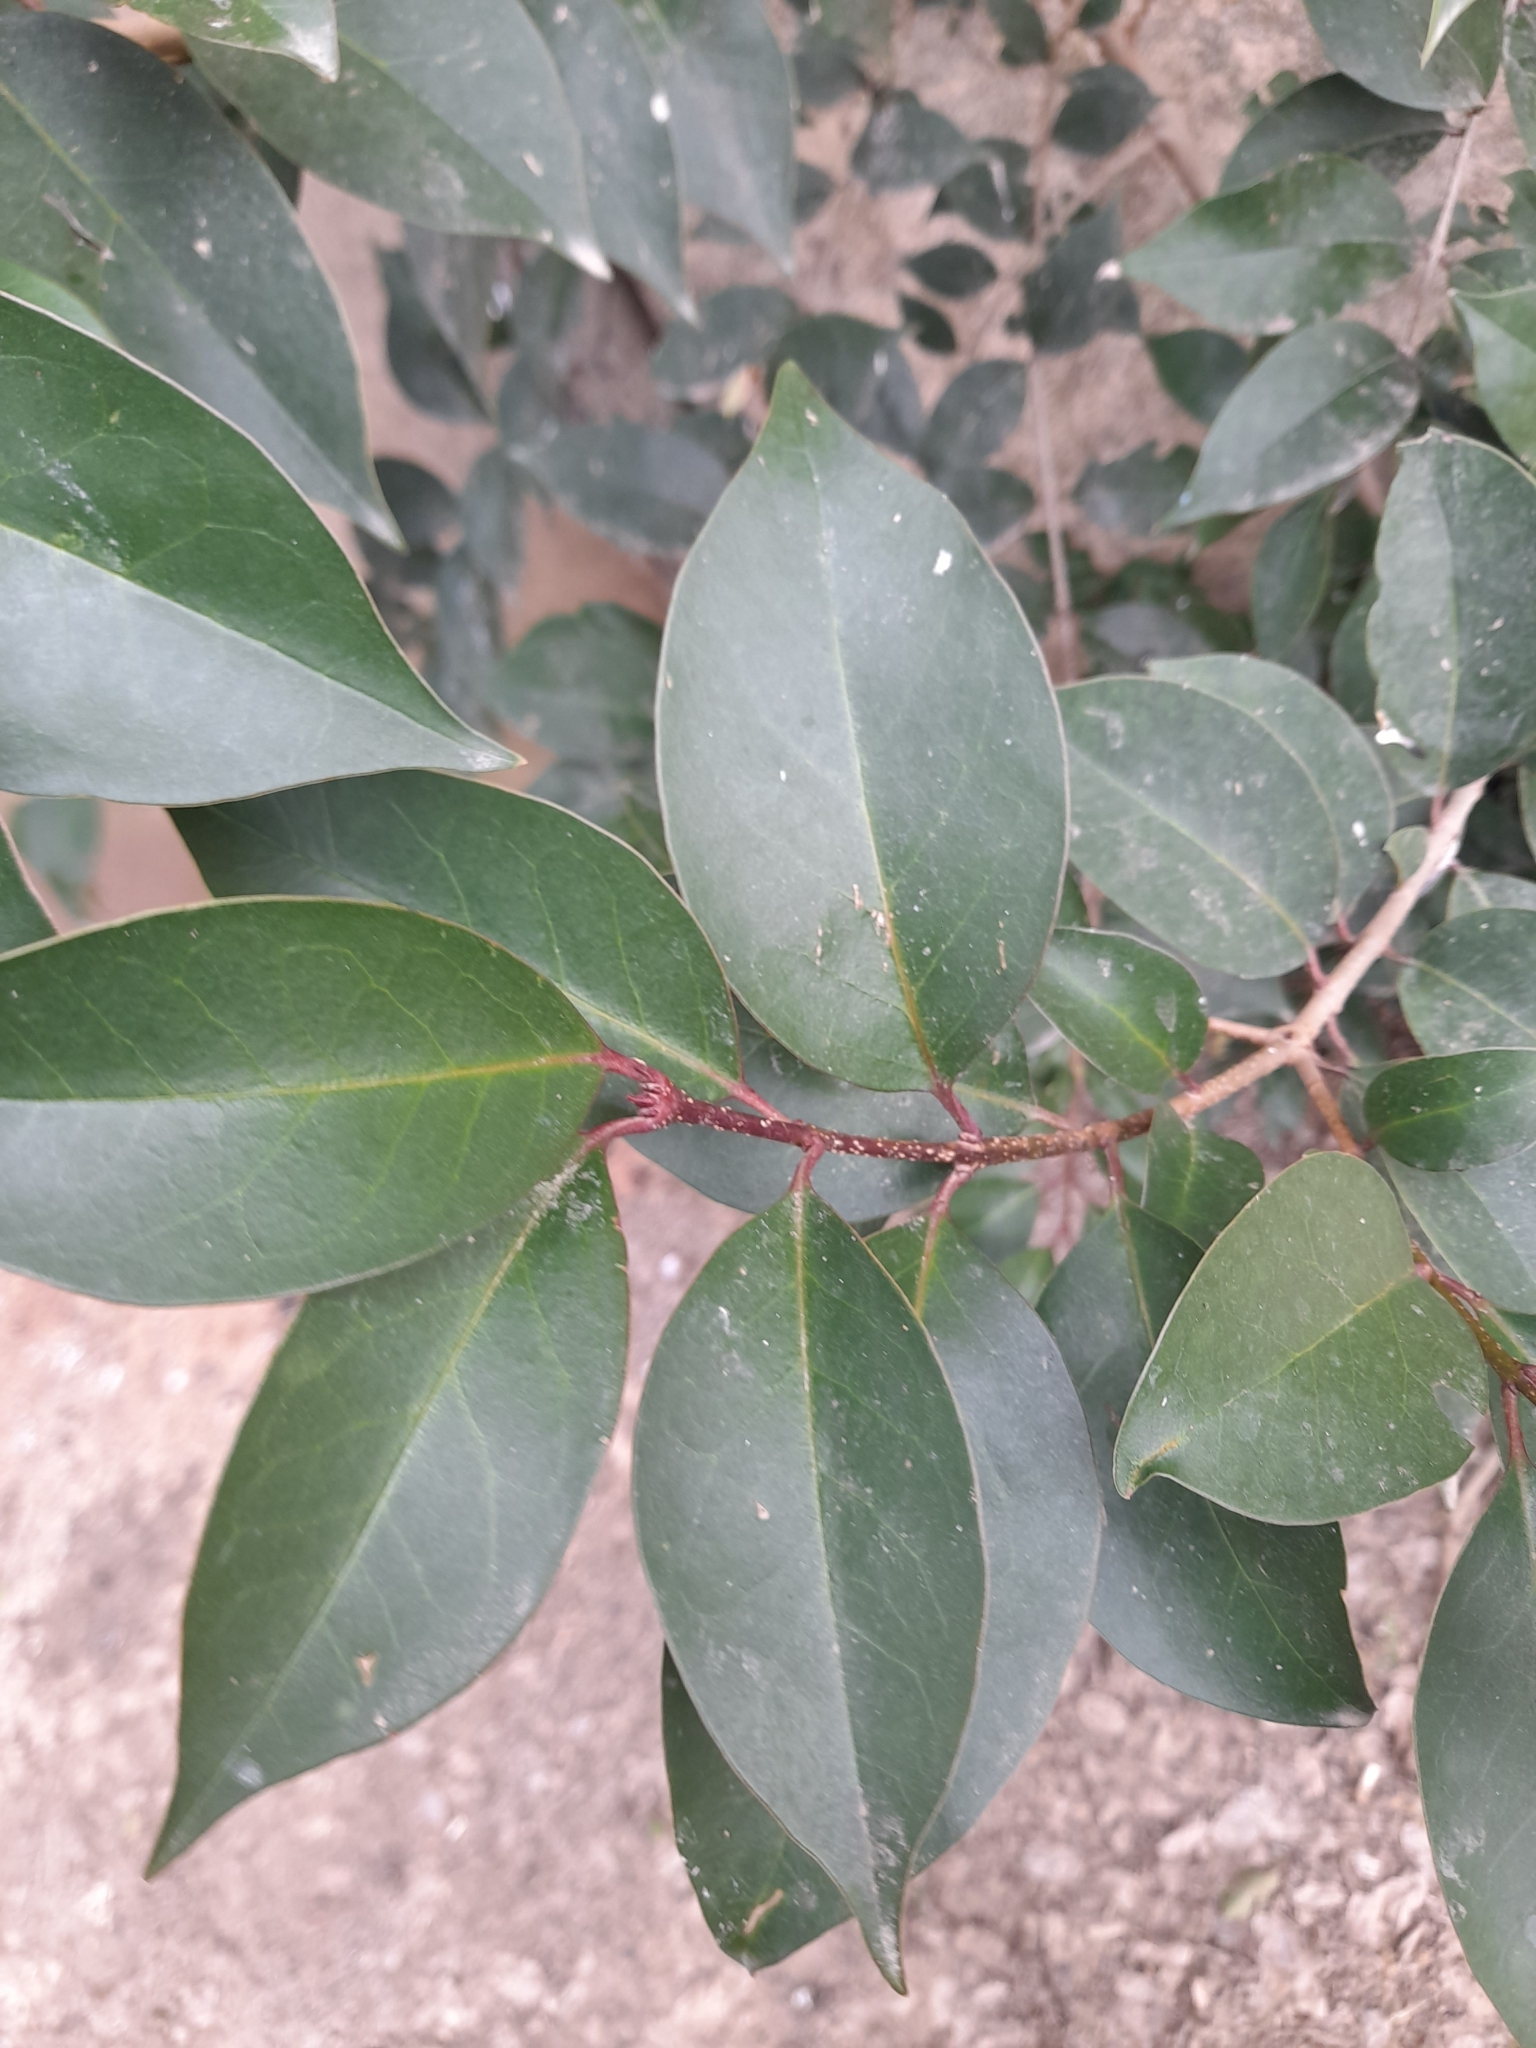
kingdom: Plantae
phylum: Tracheophyta
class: Magnoliopsida
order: Lamiales
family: Oleaceae
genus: Ligustrum
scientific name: Ligustrum lucidum
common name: Glossy privet
